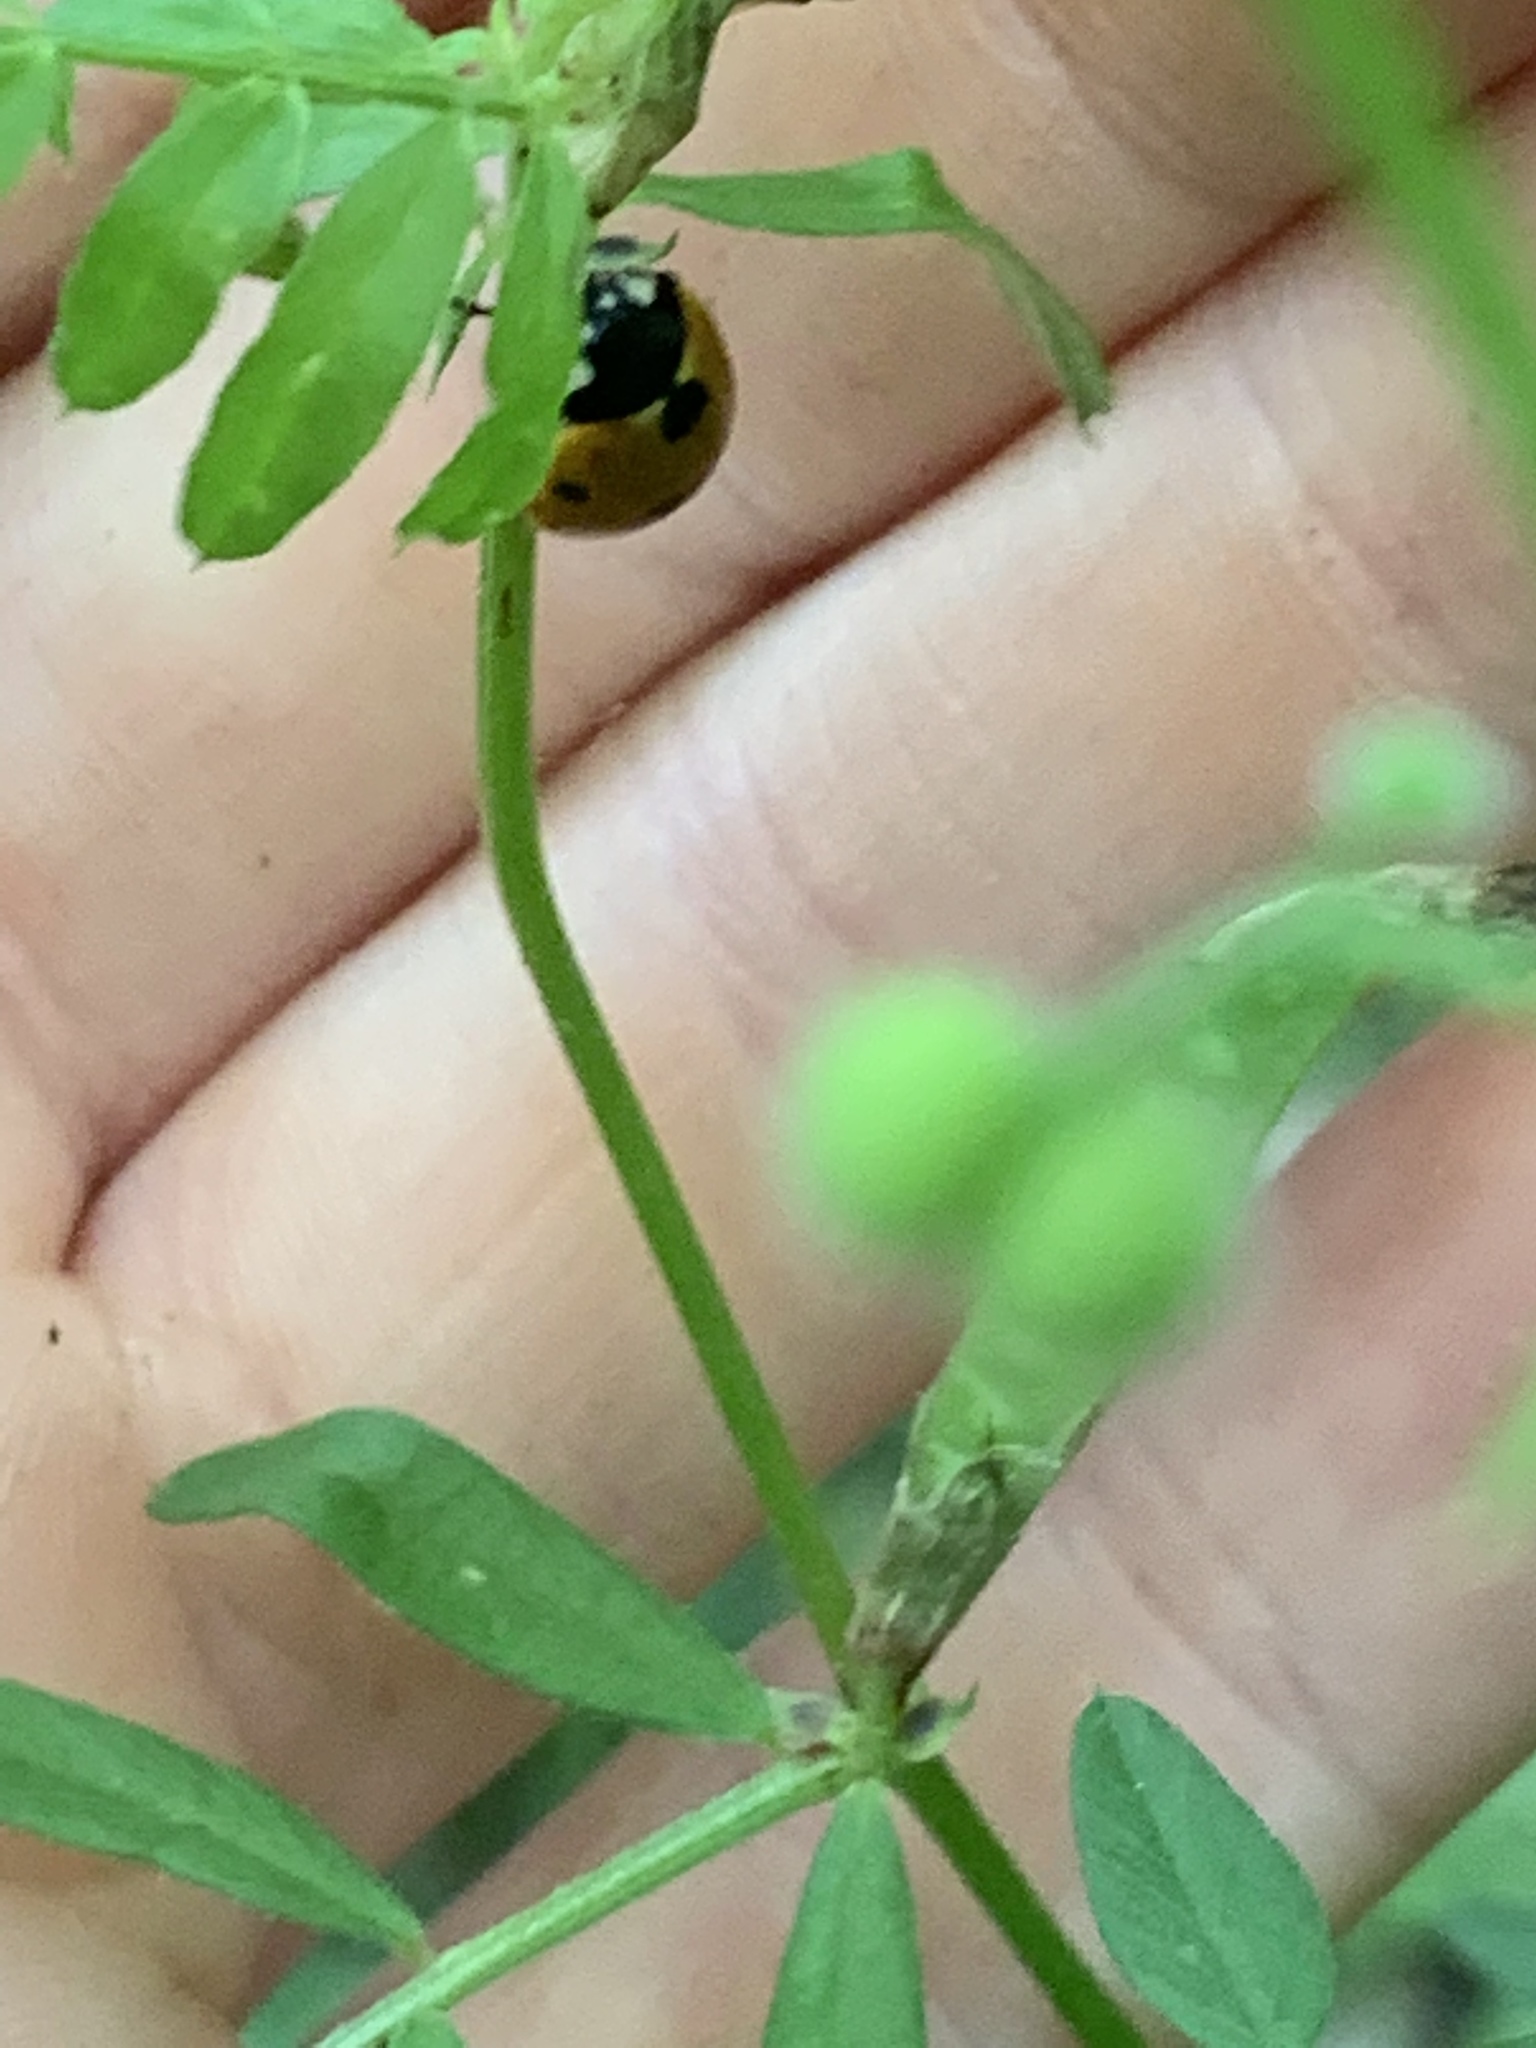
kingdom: Animalia
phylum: Arthropoda
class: Insecta
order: Coleoptera
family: Coccinellidae
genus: Coccinella
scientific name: Coccinella septempunctata
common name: Sevenspotted lady beetle
